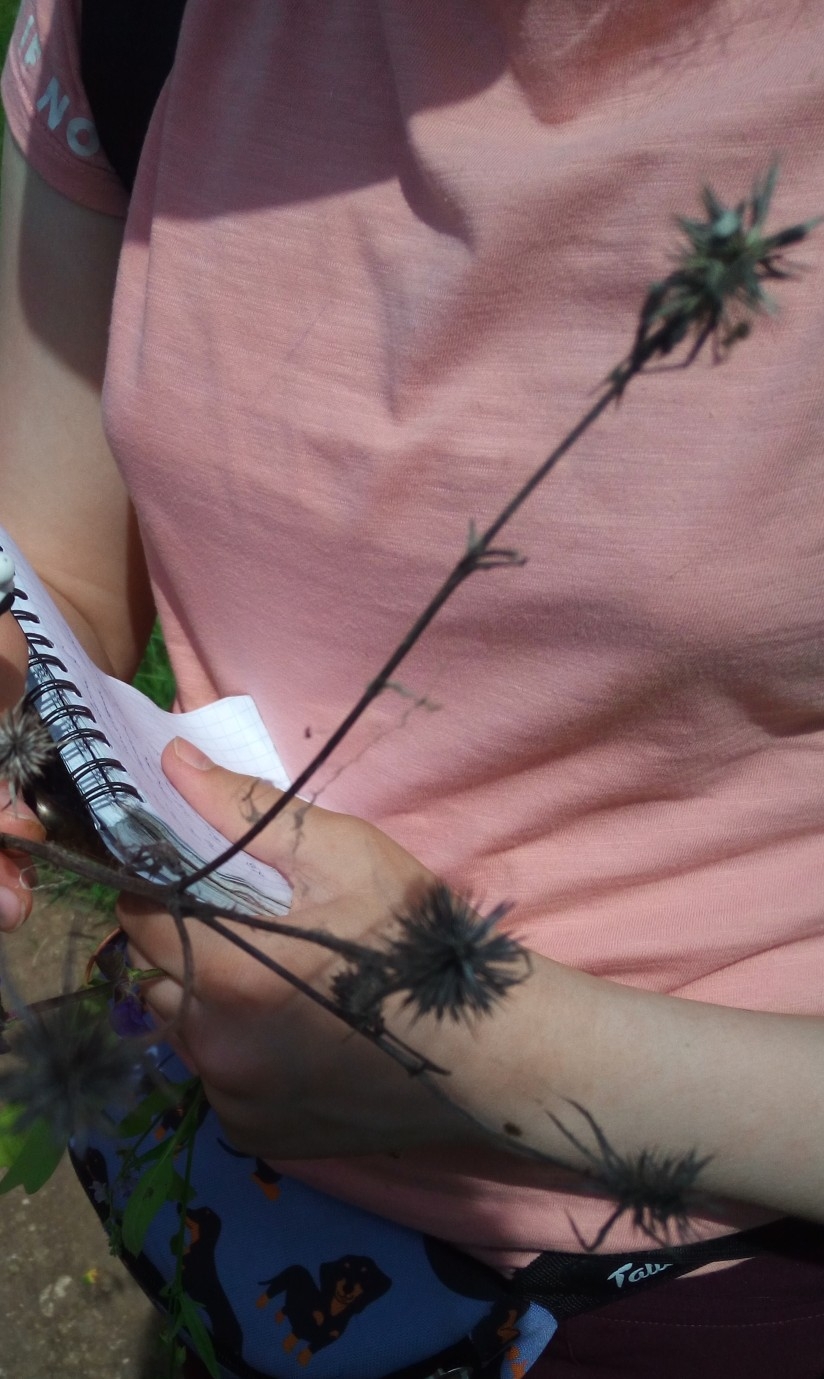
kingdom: Plantae
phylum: Tracheophyta
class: Magnoliopsida
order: Apiales
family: Apiaceae
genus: Eryngium
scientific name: Eryngium planum
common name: Blue eryngo
